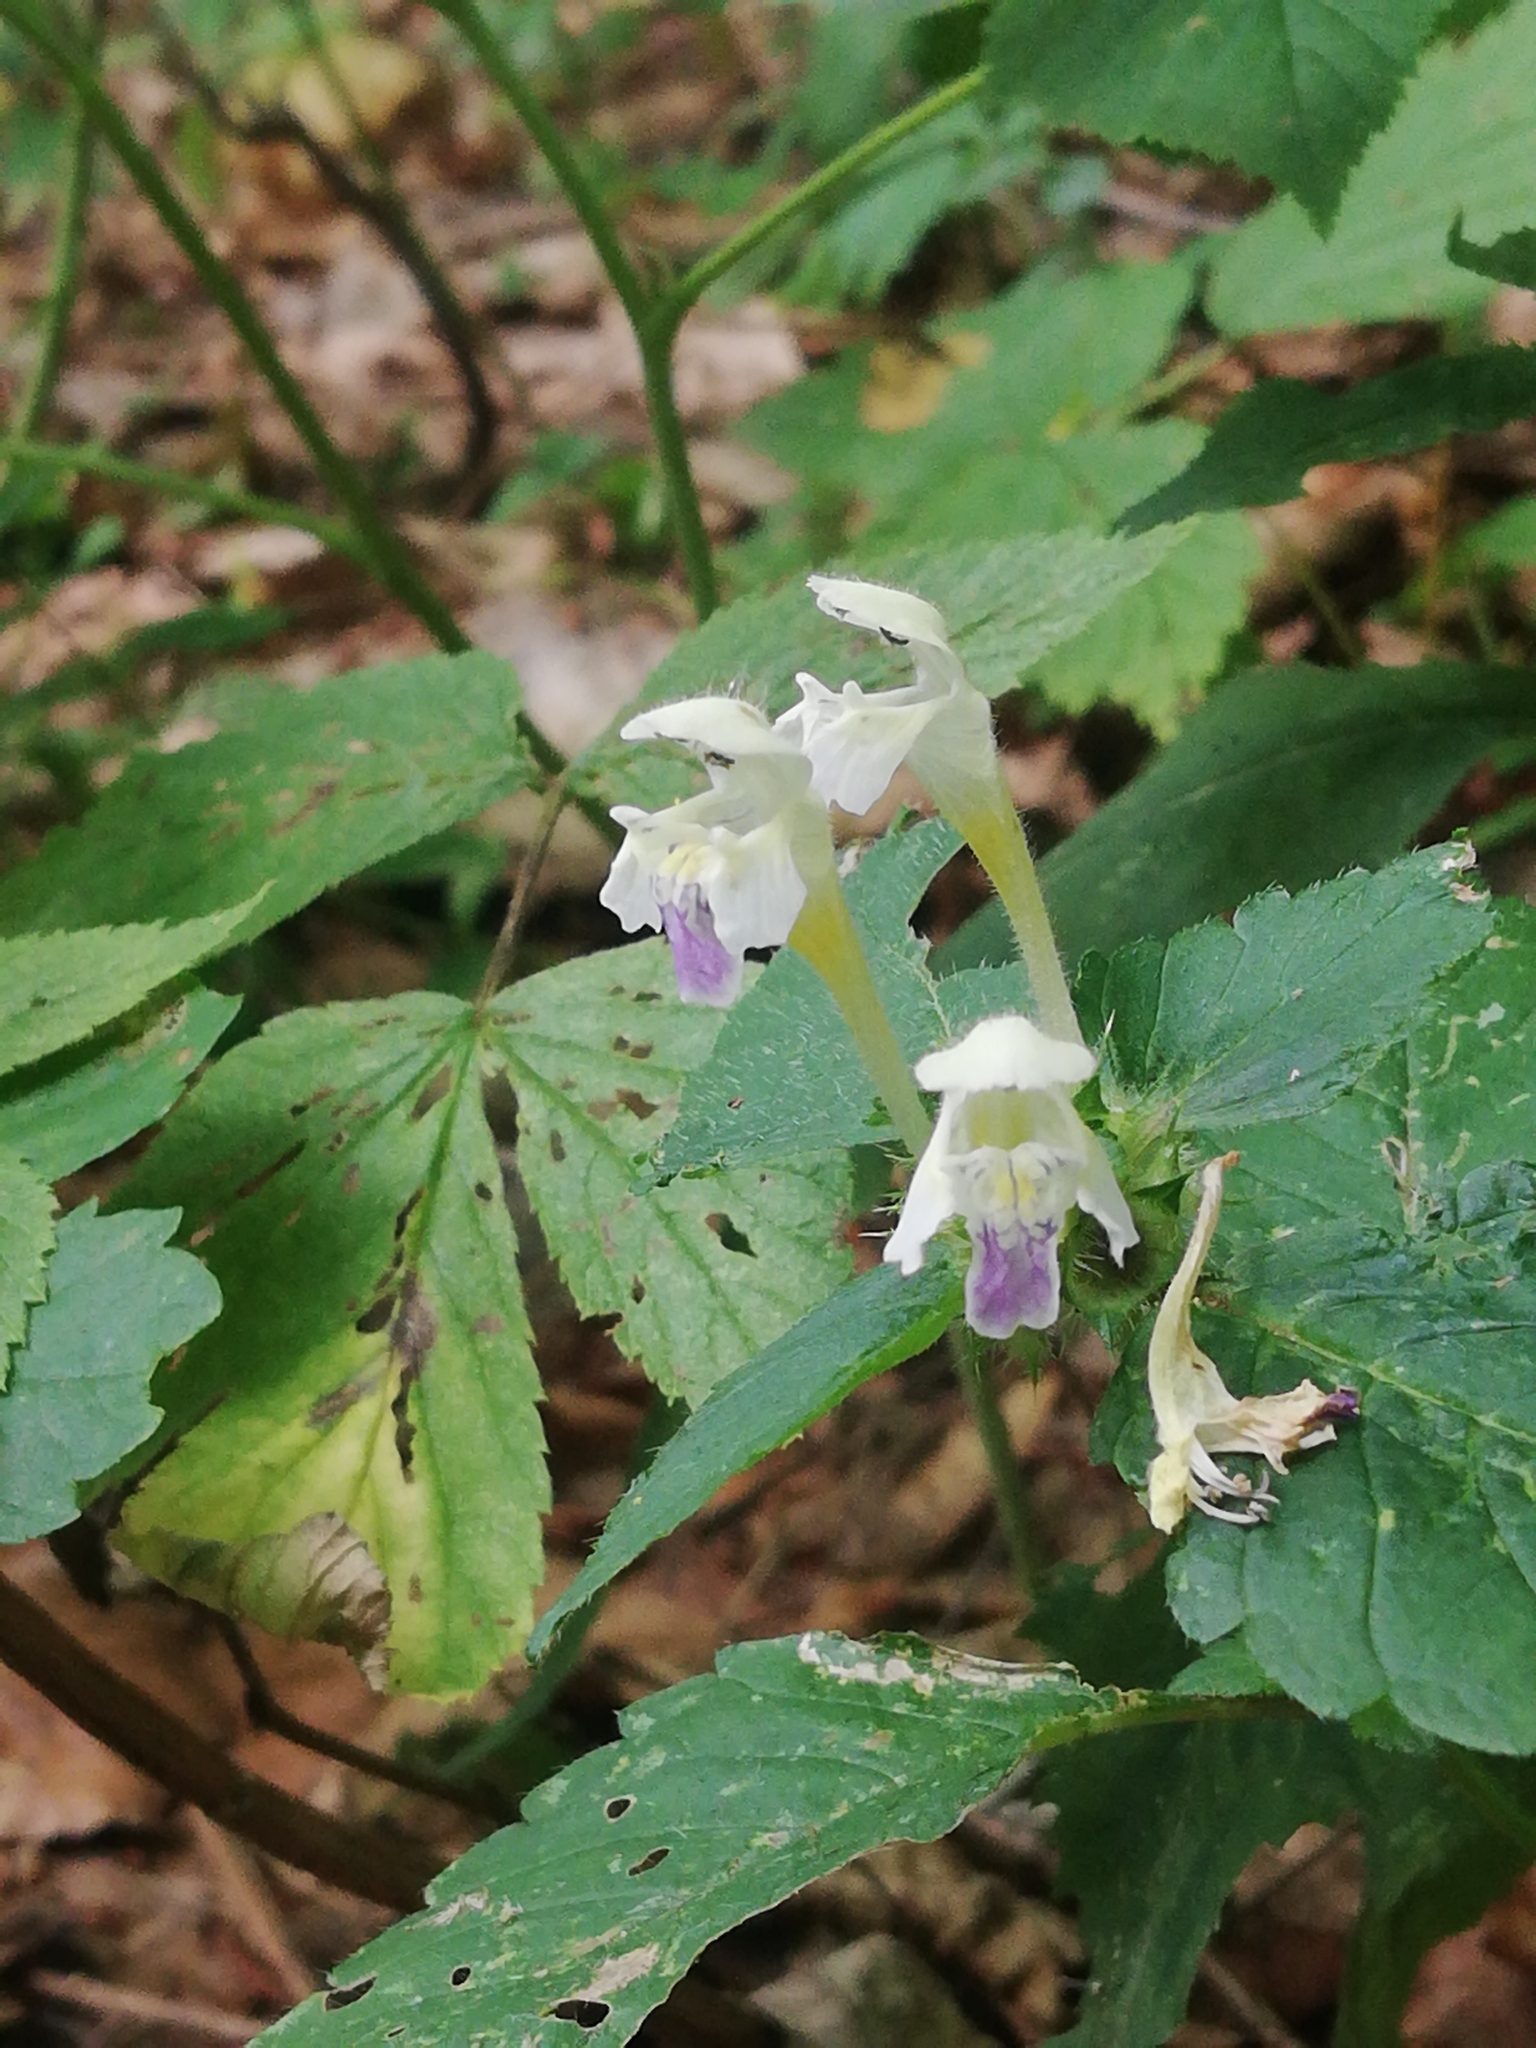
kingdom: Plantae
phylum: Tracheophyta
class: Magnoliopsida
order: Lamiales
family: Lamiaceae
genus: Galeopsis
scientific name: Galeopsis speciosa
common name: Large-flowered hemp-nettle
